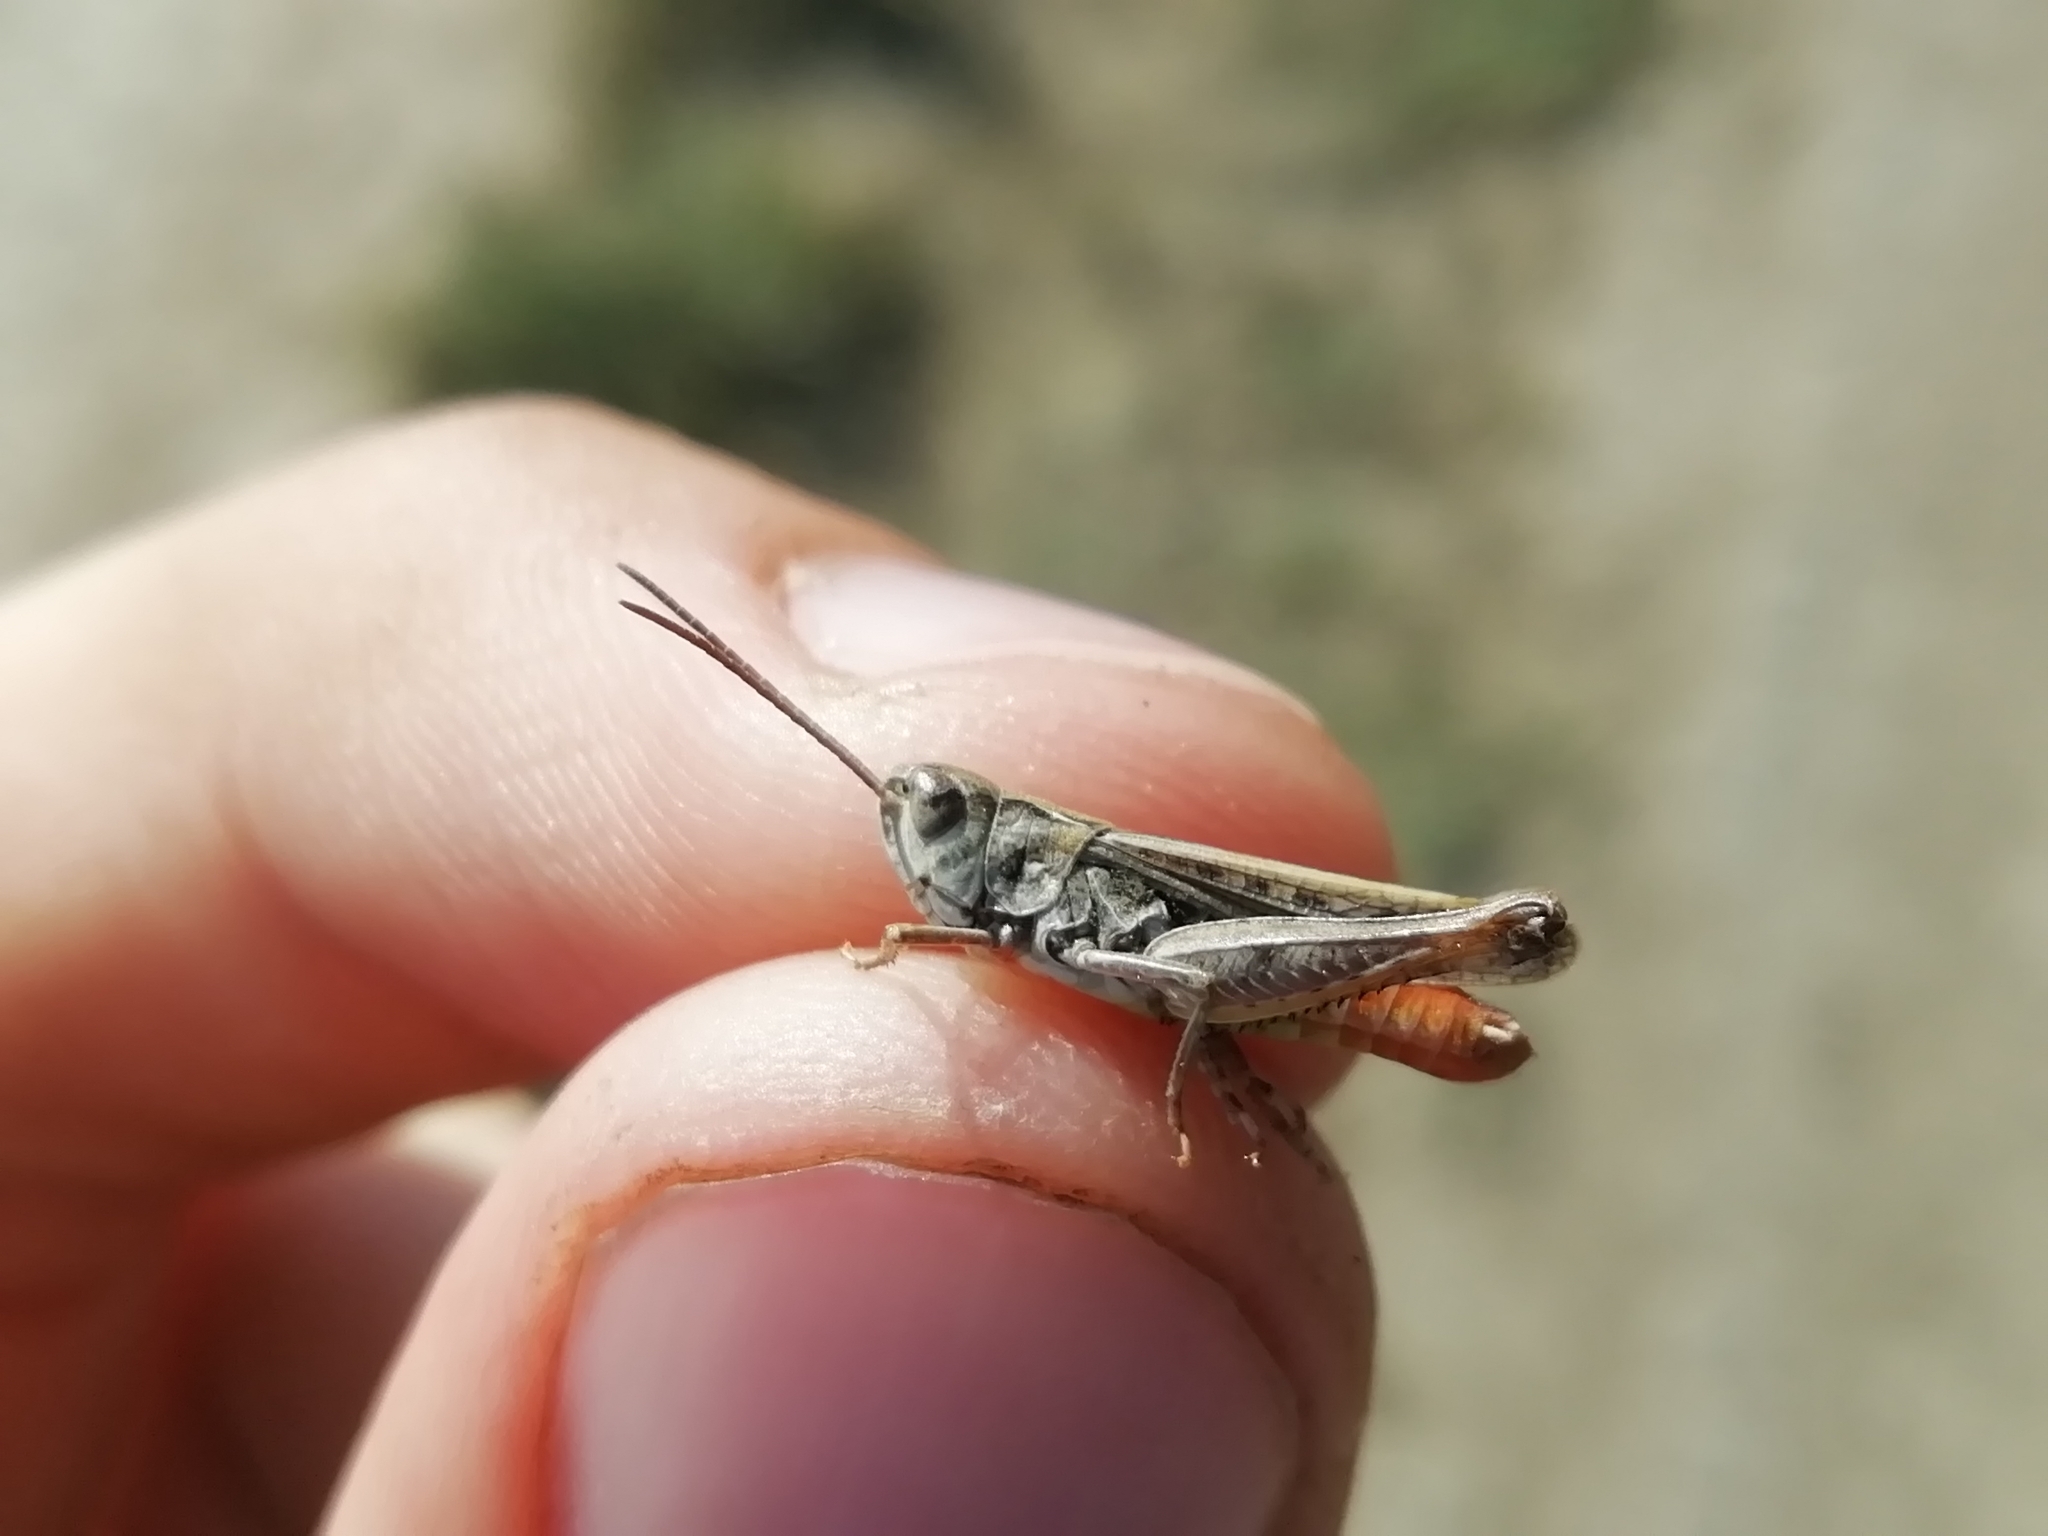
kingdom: Animalia
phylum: Arthropoda
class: Insecta
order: Orthoptera
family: Acrididae
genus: Omocestus
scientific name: Omocestus haemorrhoidalis
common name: Orange-tipped grasshopper
